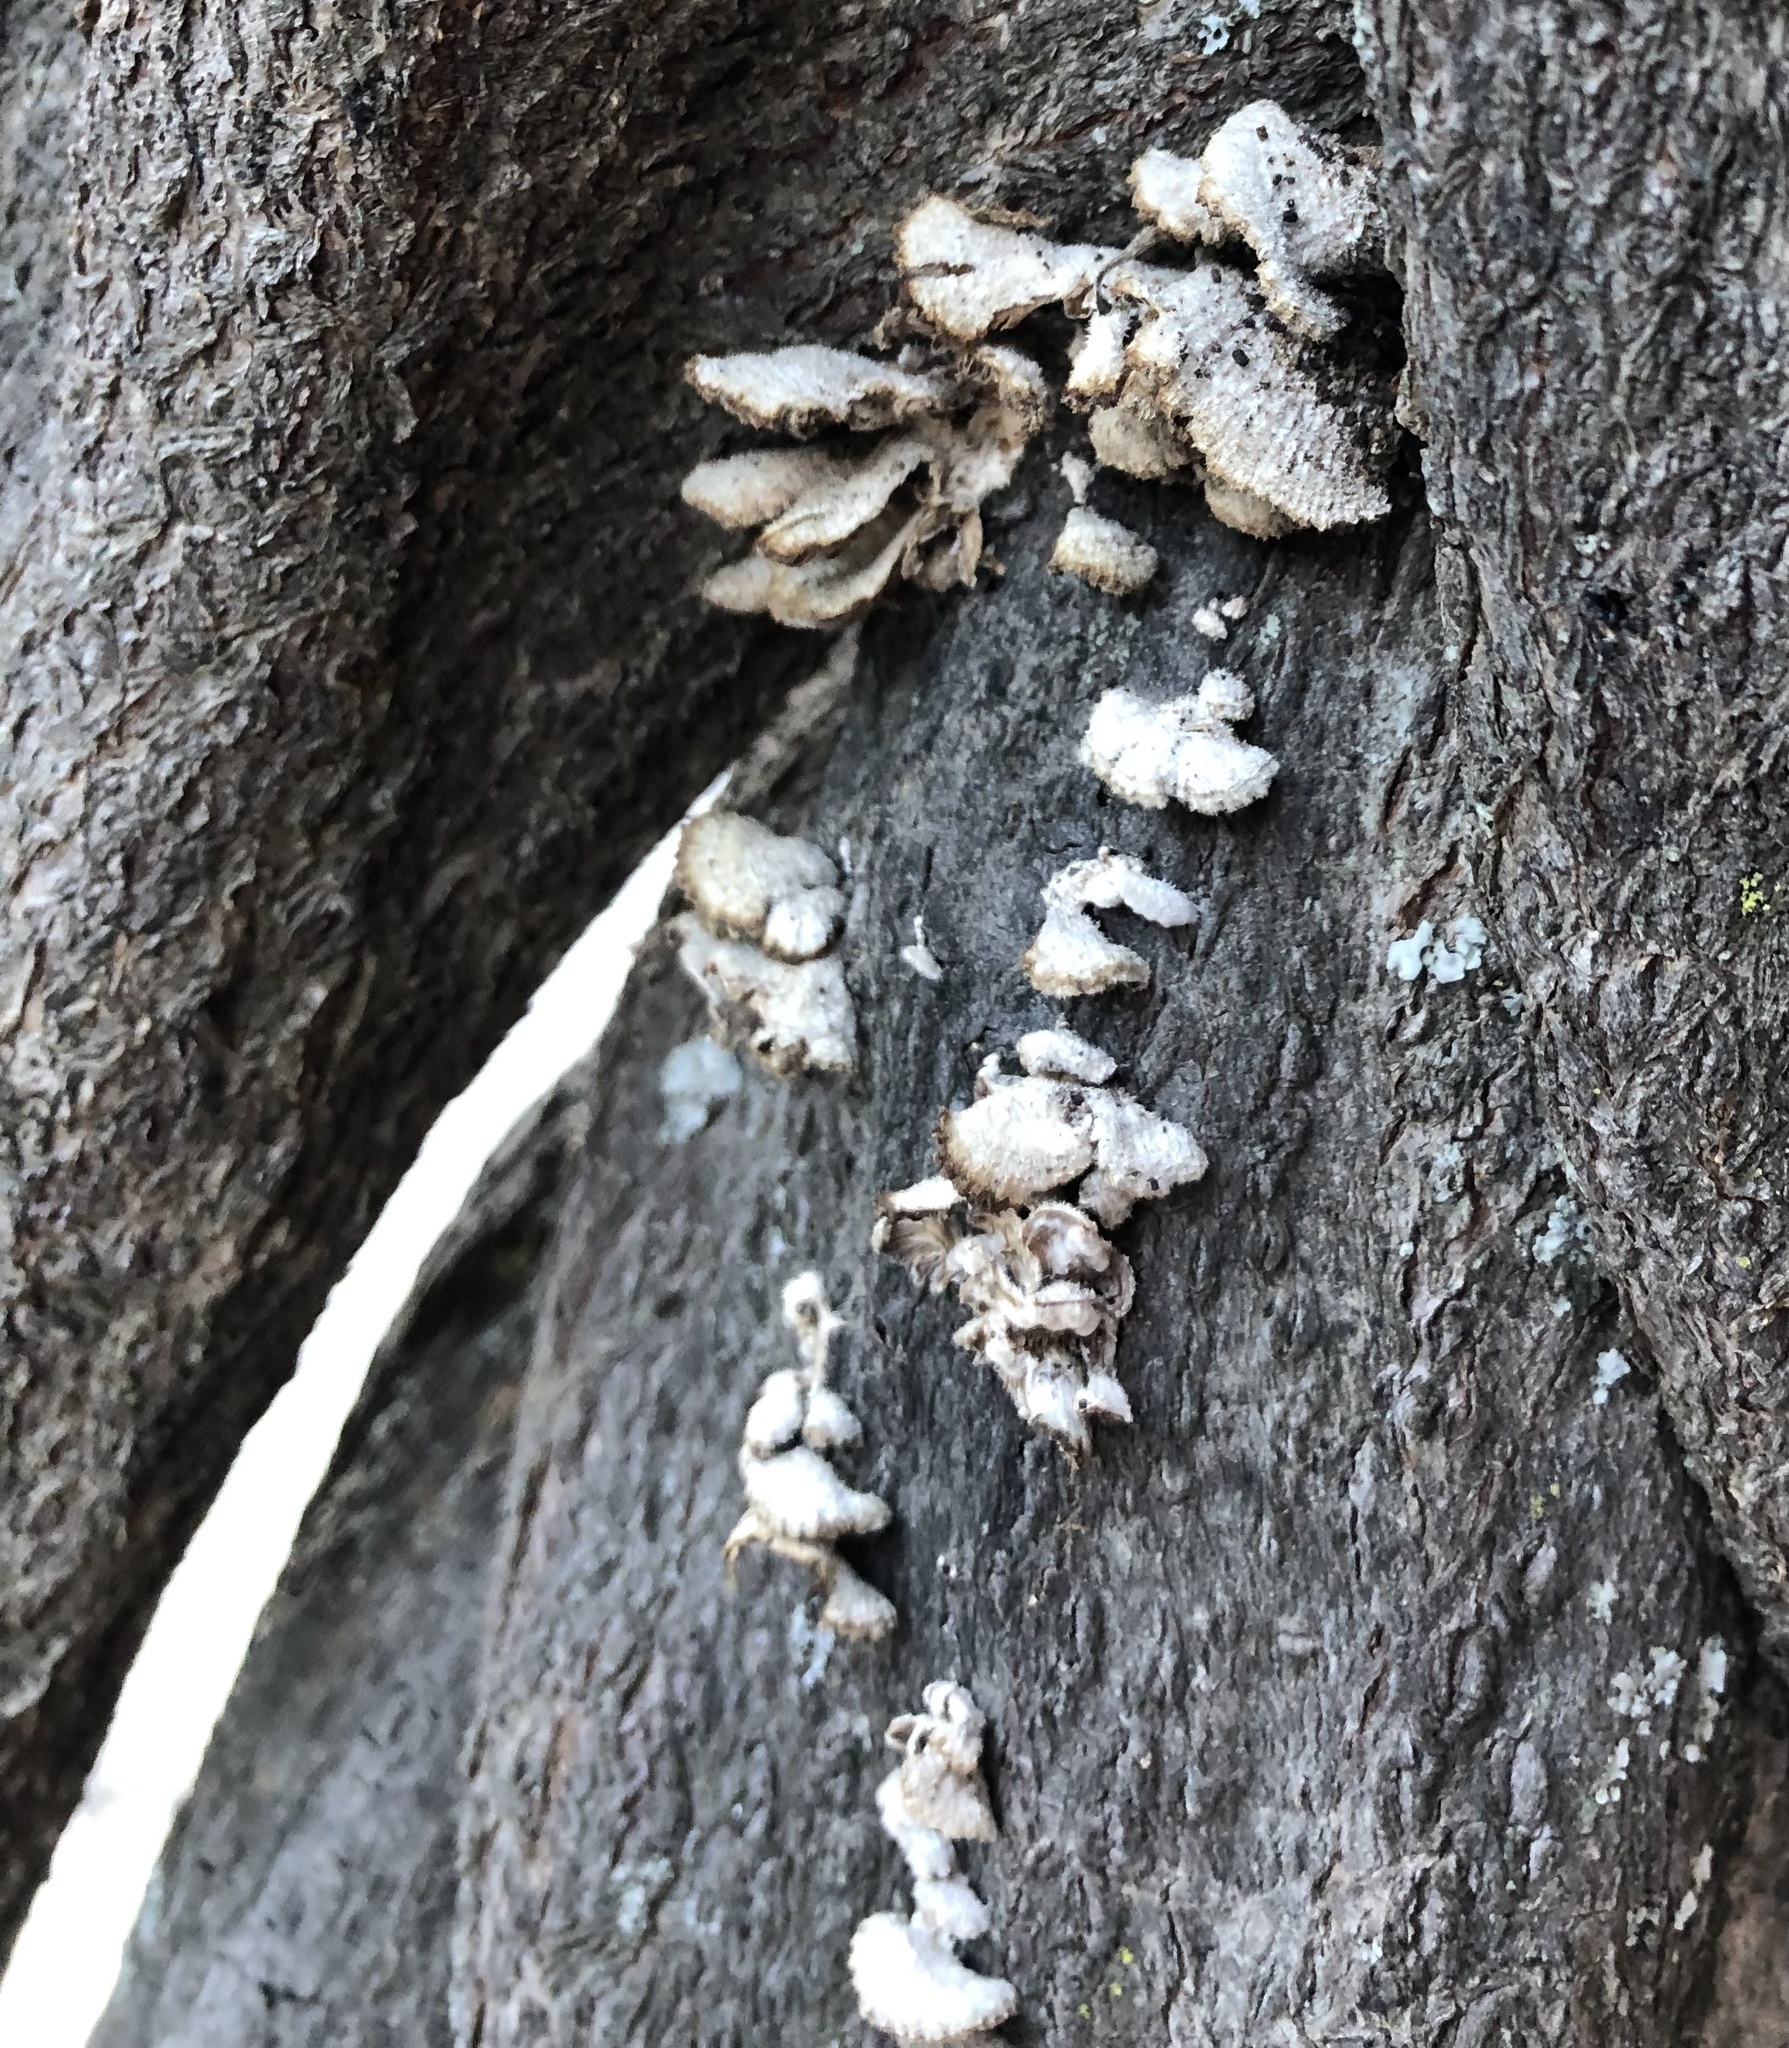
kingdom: Fungi
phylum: Basidiomycota
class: Agaricomycetes
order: Agaricales
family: Schizophyllaceae
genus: Schizophyllum
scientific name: Schizophyllum commune
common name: Common porecrust
